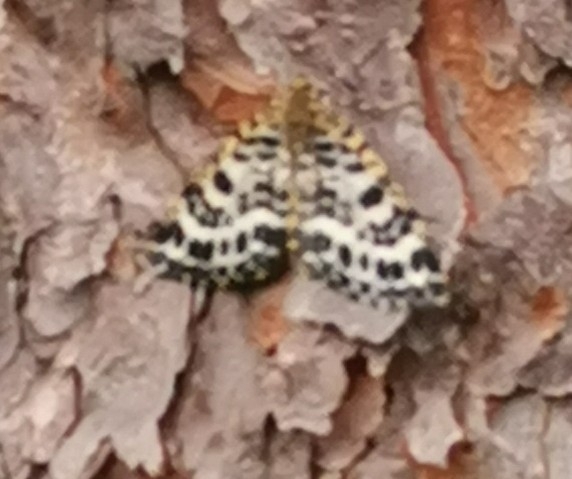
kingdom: Animalia
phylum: Arthropoda
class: Insecta
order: Lepidoptera
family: Geometridae
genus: Arichanna
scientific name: Arichanna melanaria
